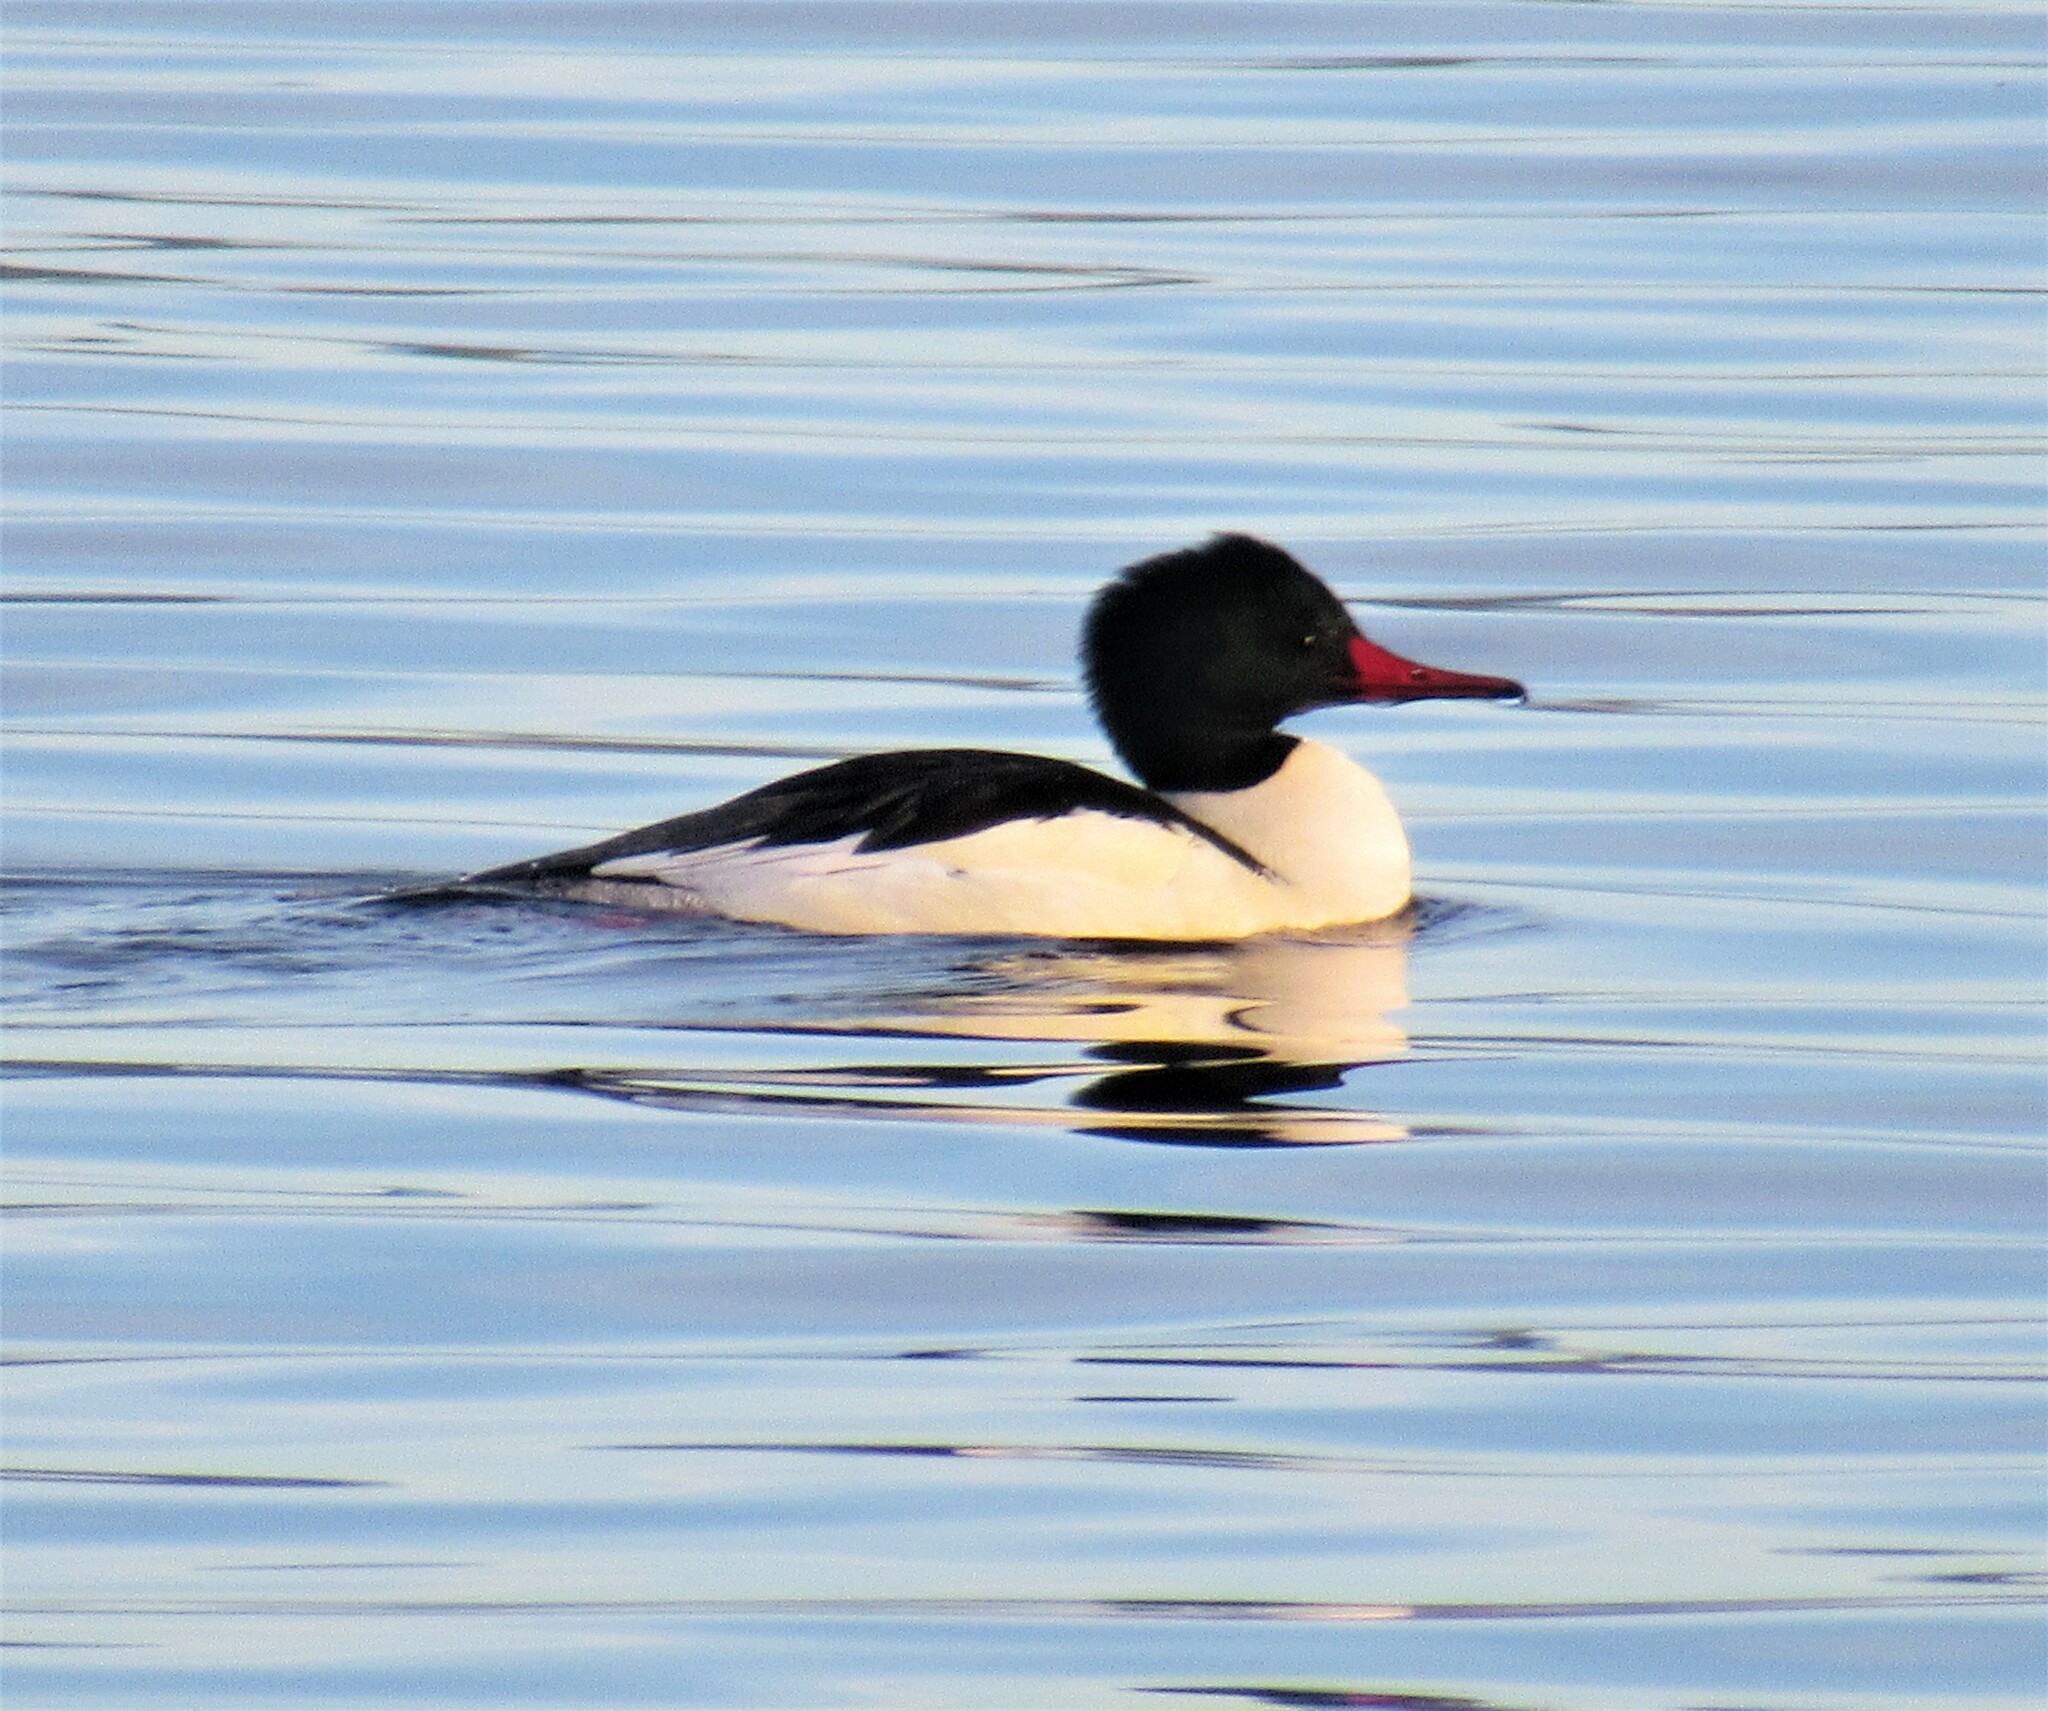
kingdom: Animalia
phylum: Chordata
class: Aves
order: Anseriformes
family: Anatidae
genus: Mergus
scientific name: Mergus merganser
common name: Common merganser
